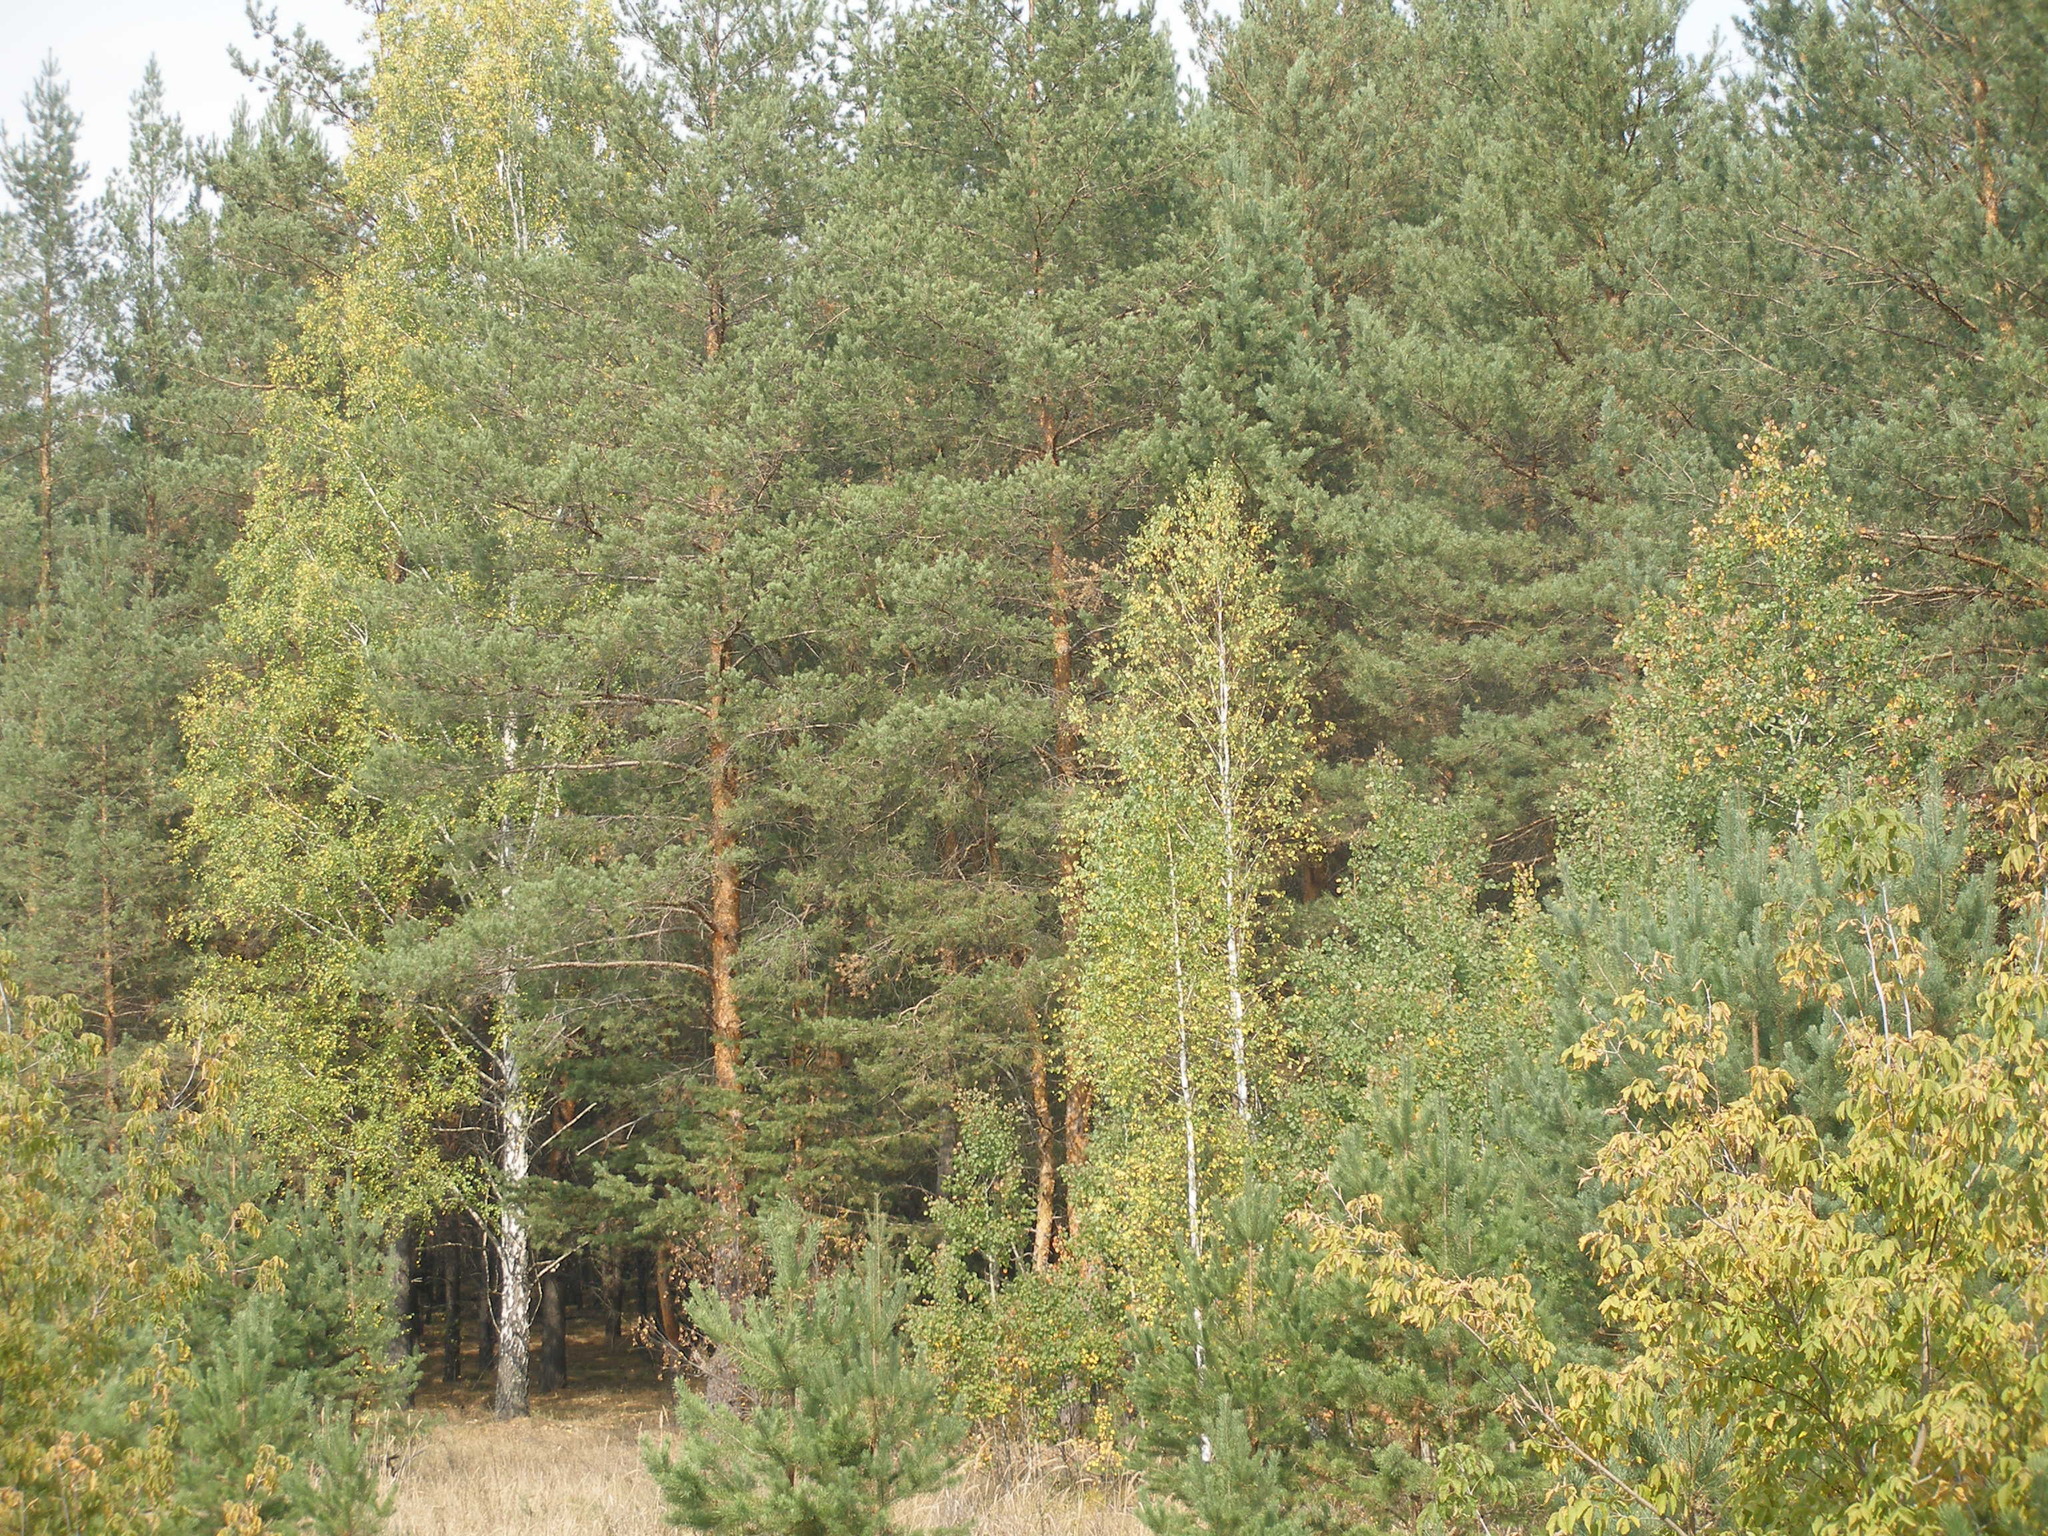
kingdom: Plantae
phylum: Tracheophyta
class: Pinopsida
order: Pinales
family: Pinaceae
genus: Pinus
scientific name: Pinus sylvestris
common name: Scots pine
